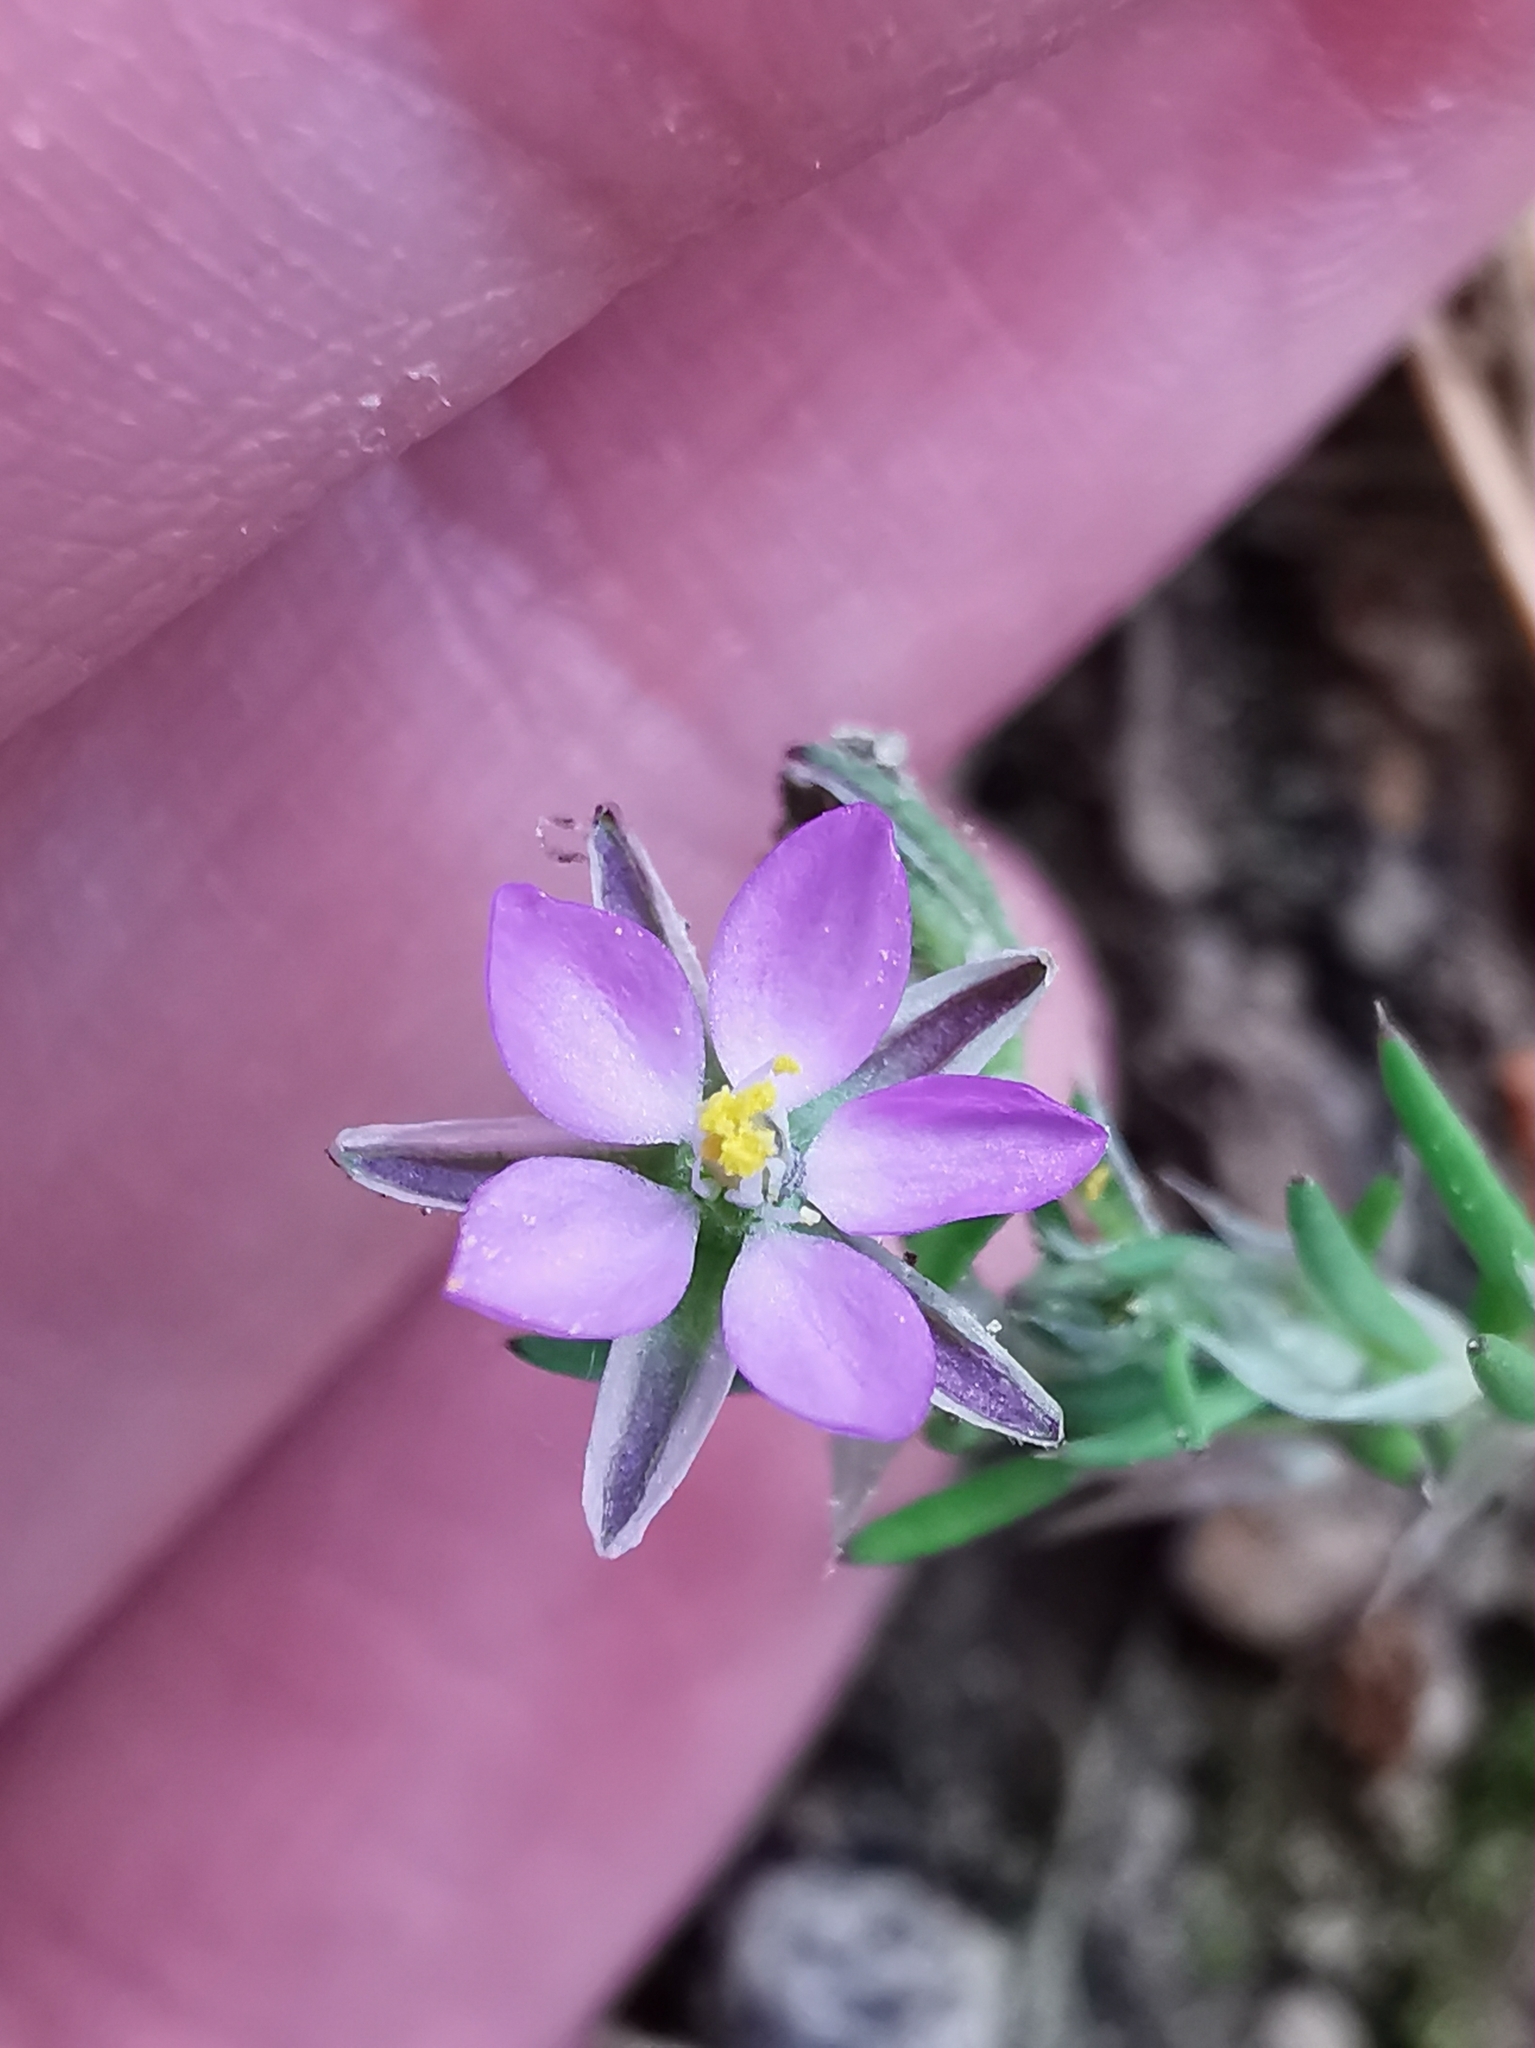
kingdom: Plantae
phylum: Tracheophyta
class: Magnoliopsida
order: Caryophyllales
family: Caryophyllaceae
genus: Spergularia
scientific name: Spergularia rubra
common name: Red sand-spurrey
